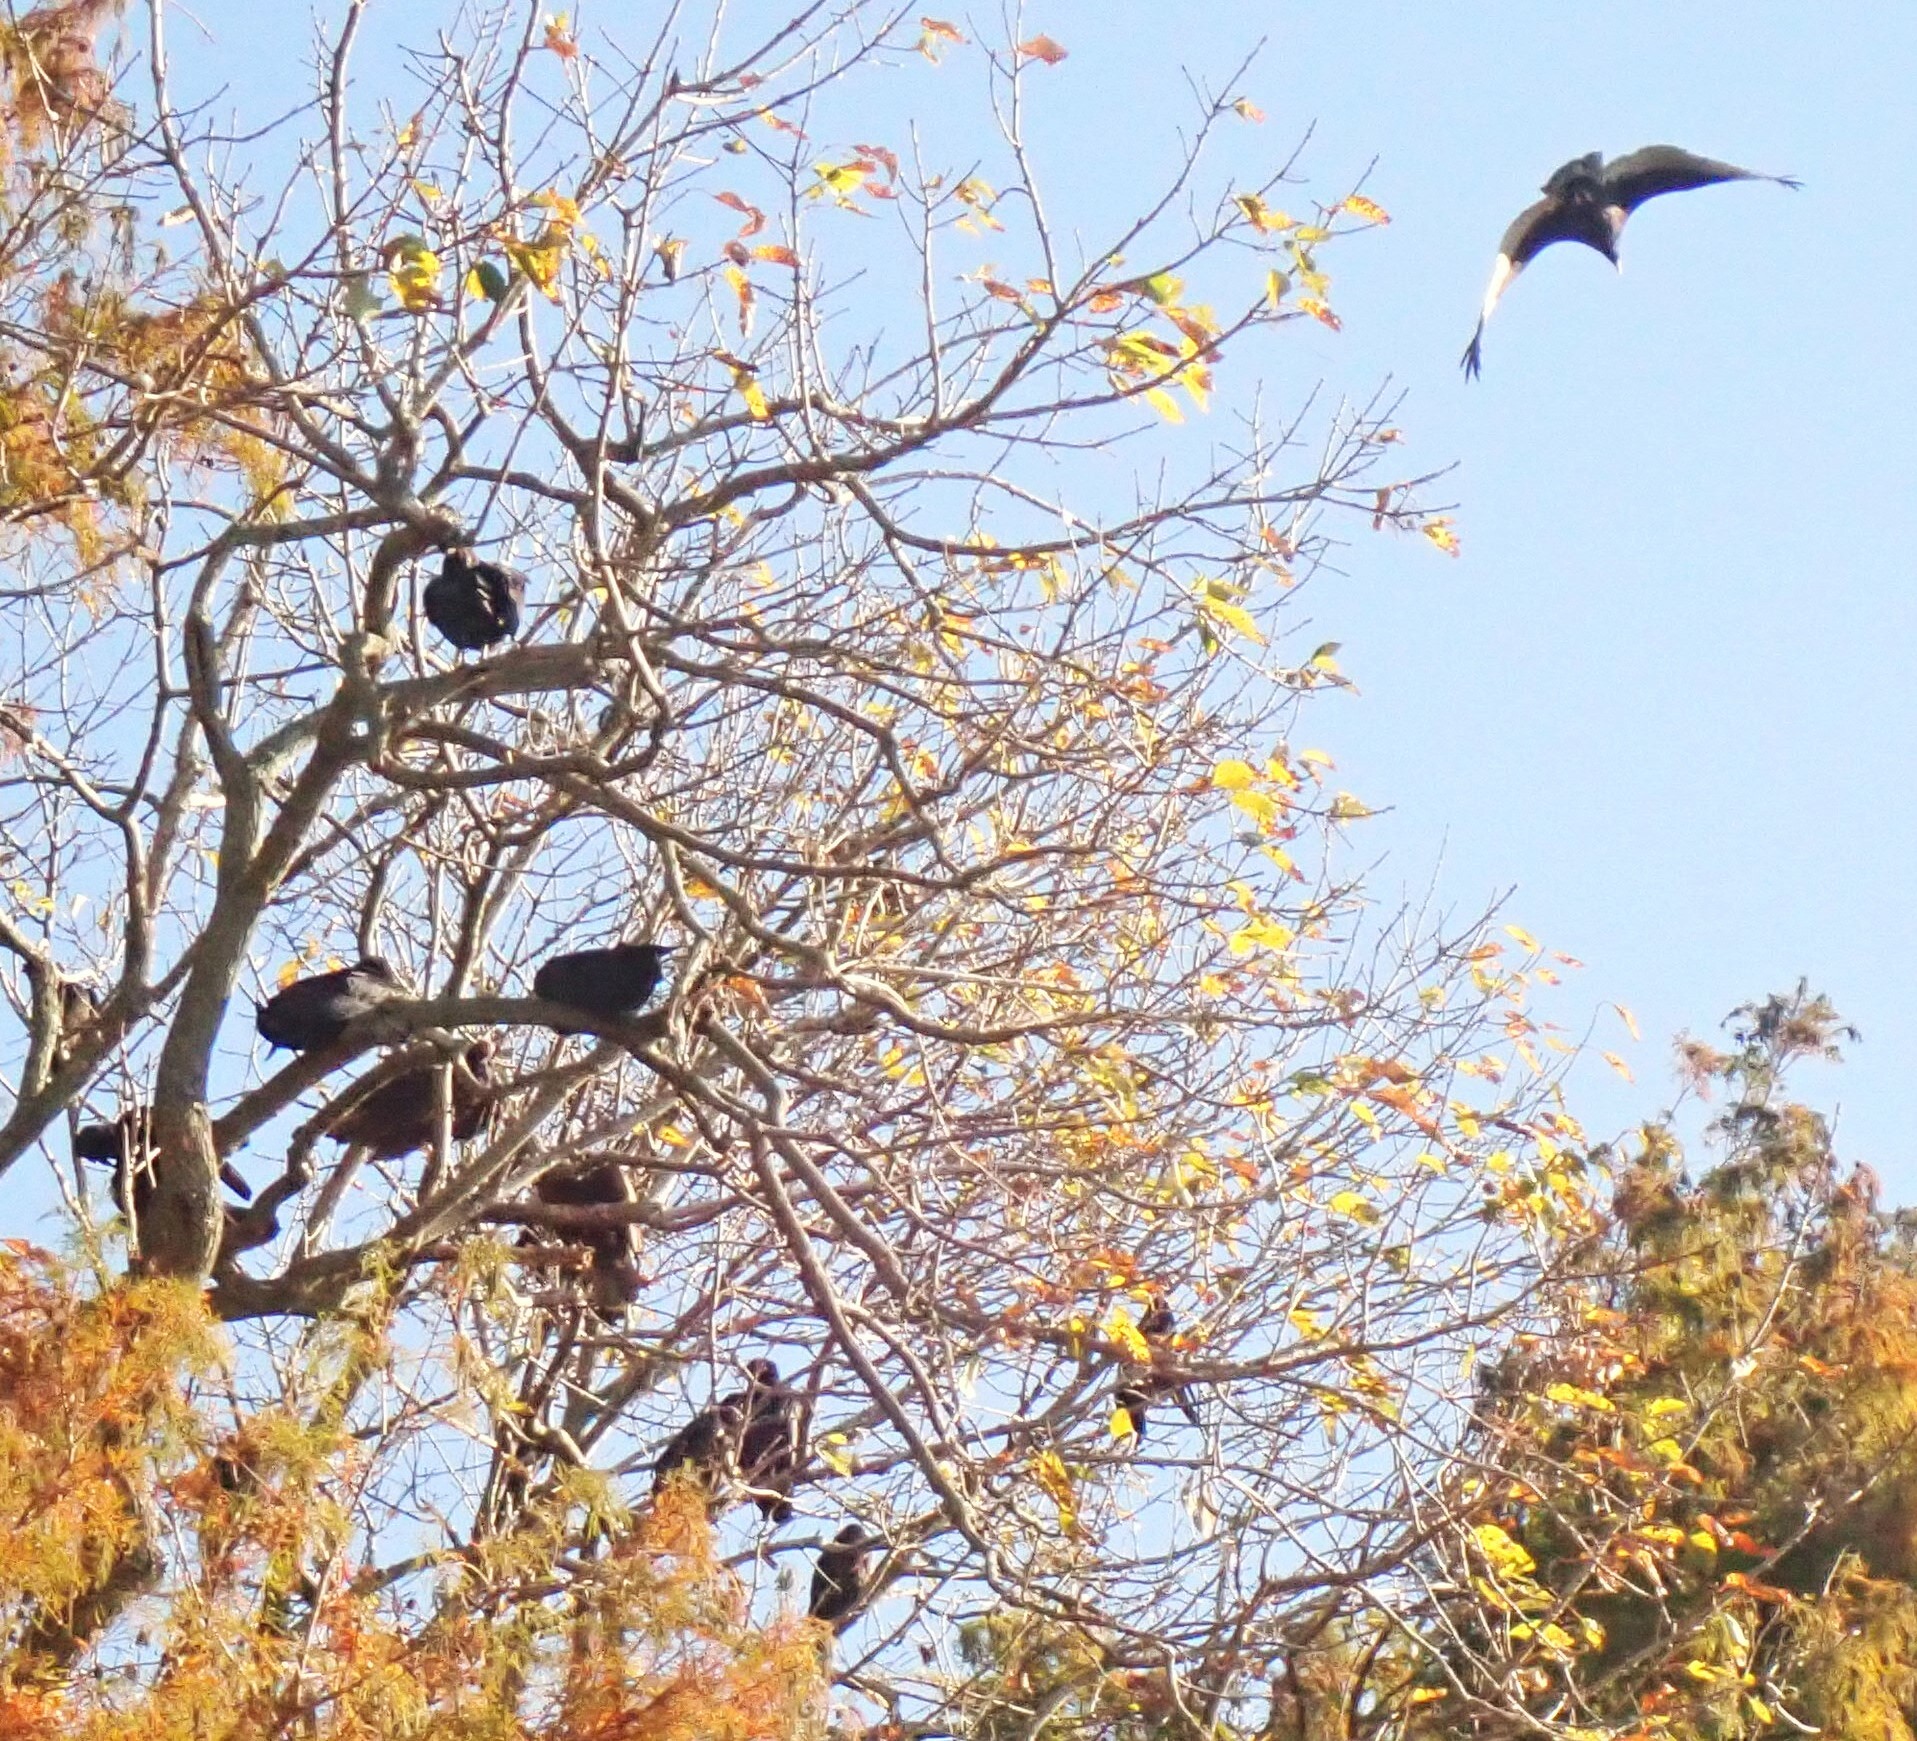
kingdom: Animalia
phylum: Chordata
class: Aves
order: Accipitriformes
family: Cathartidae
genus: Coragyps
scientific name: Coragyps atratus
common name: Black vulture
